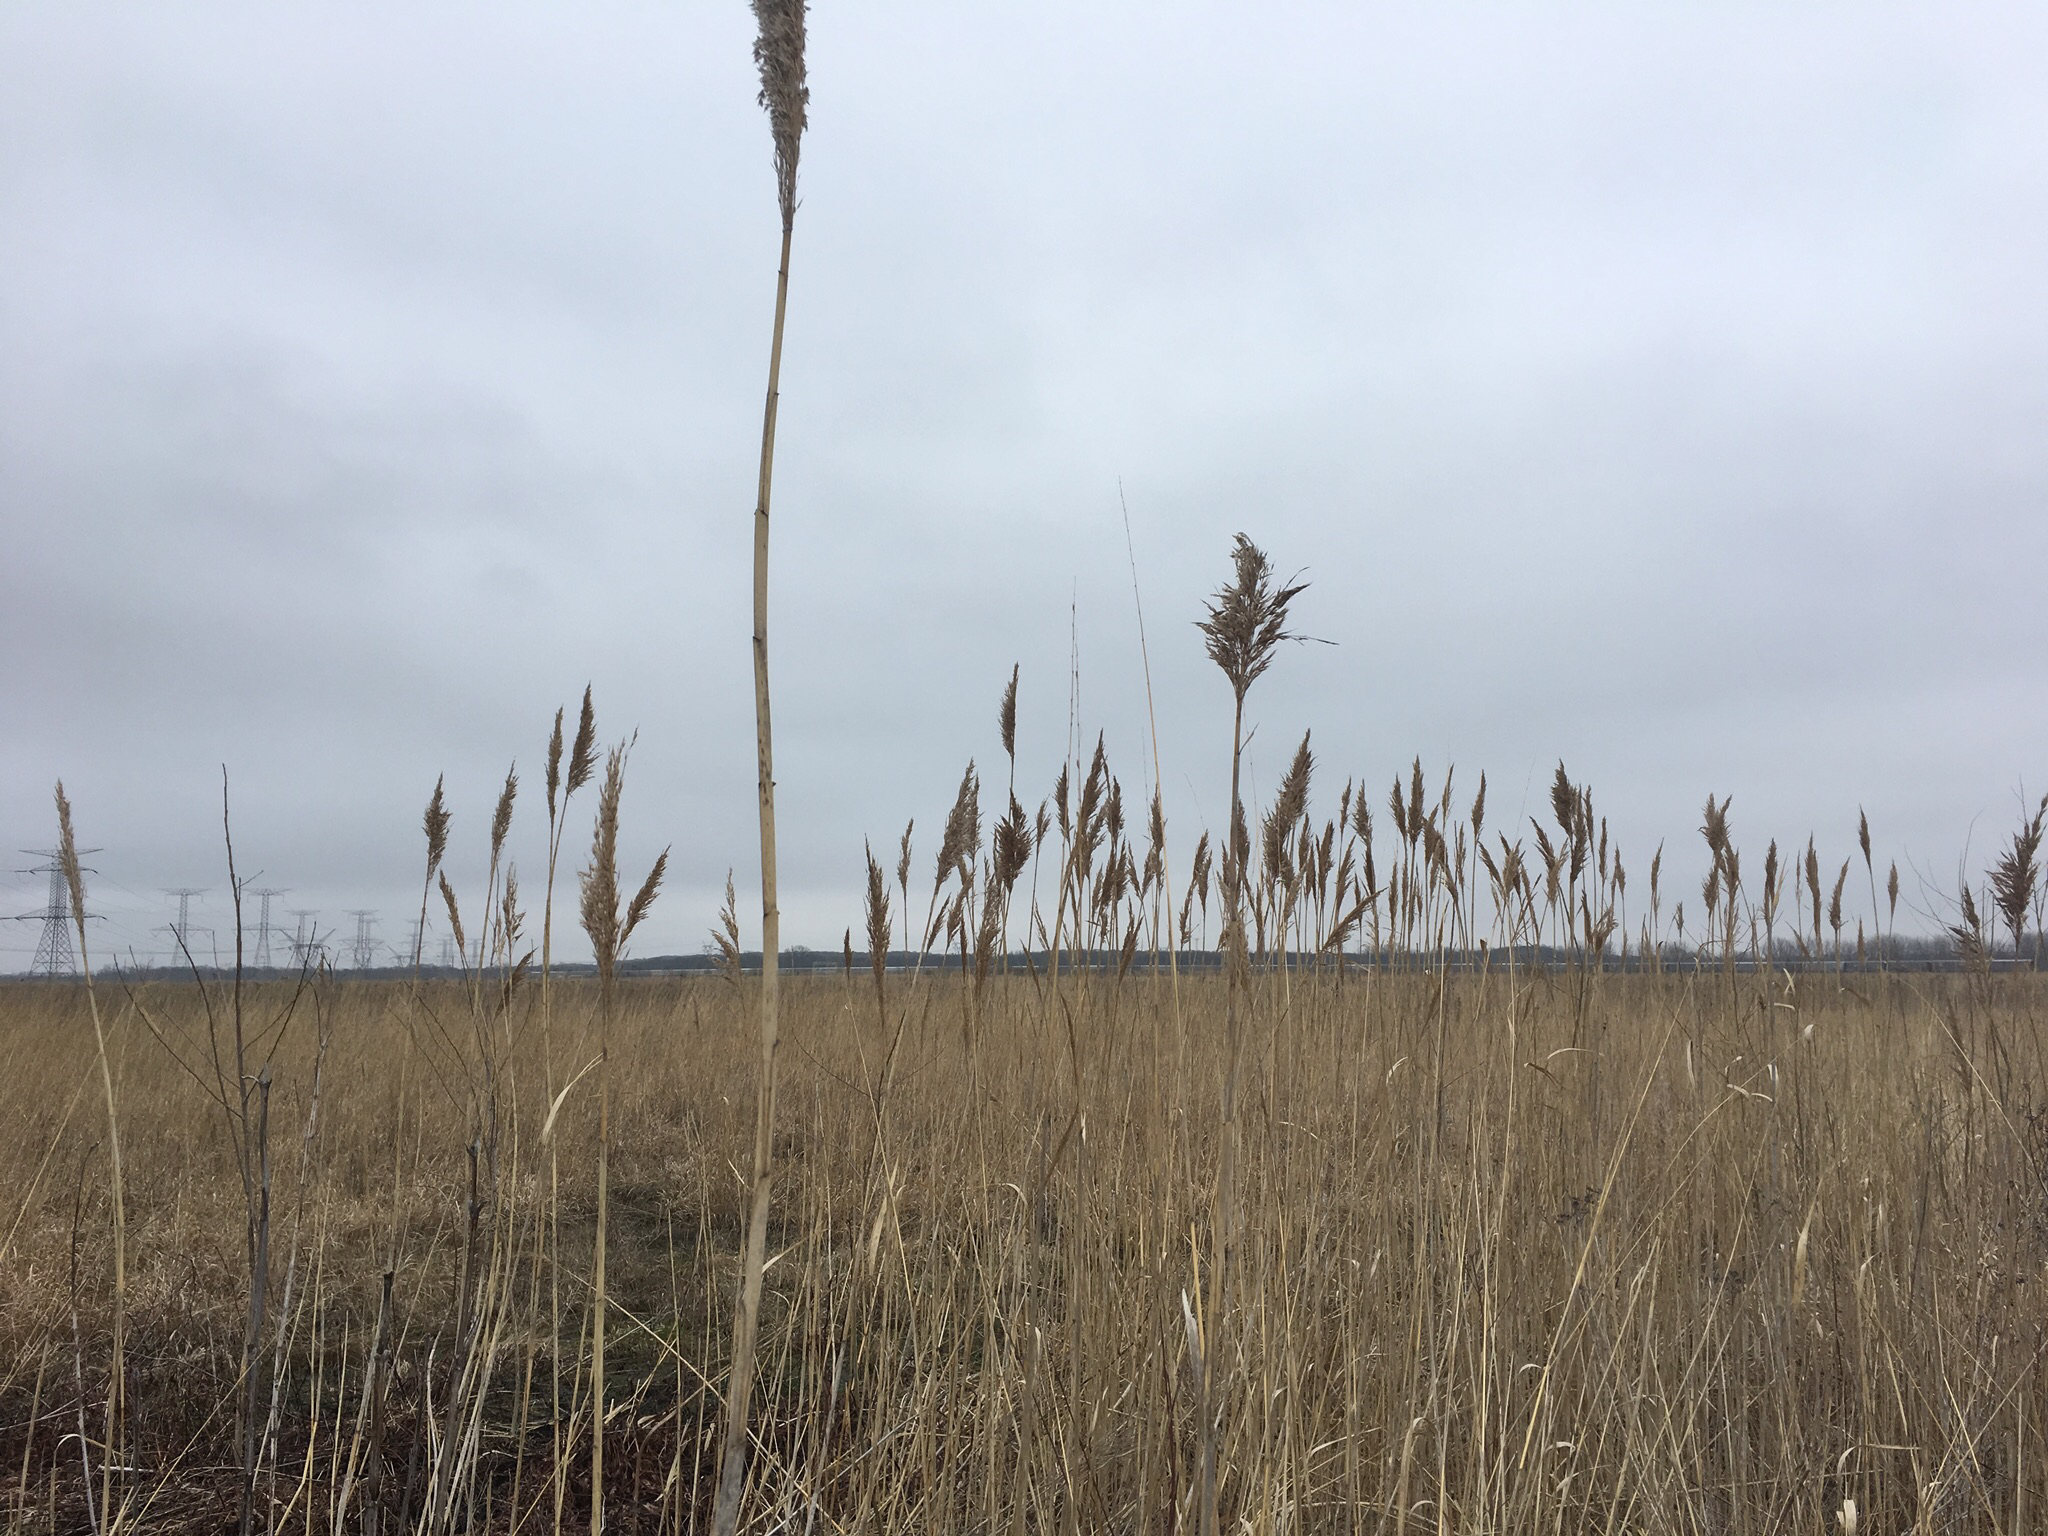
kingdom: Plantae
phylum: Tracheophyta
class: Liliopsida
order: Poales
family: Poaceae
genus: Phragmites
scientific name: Phragmites australis
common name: Common reed
